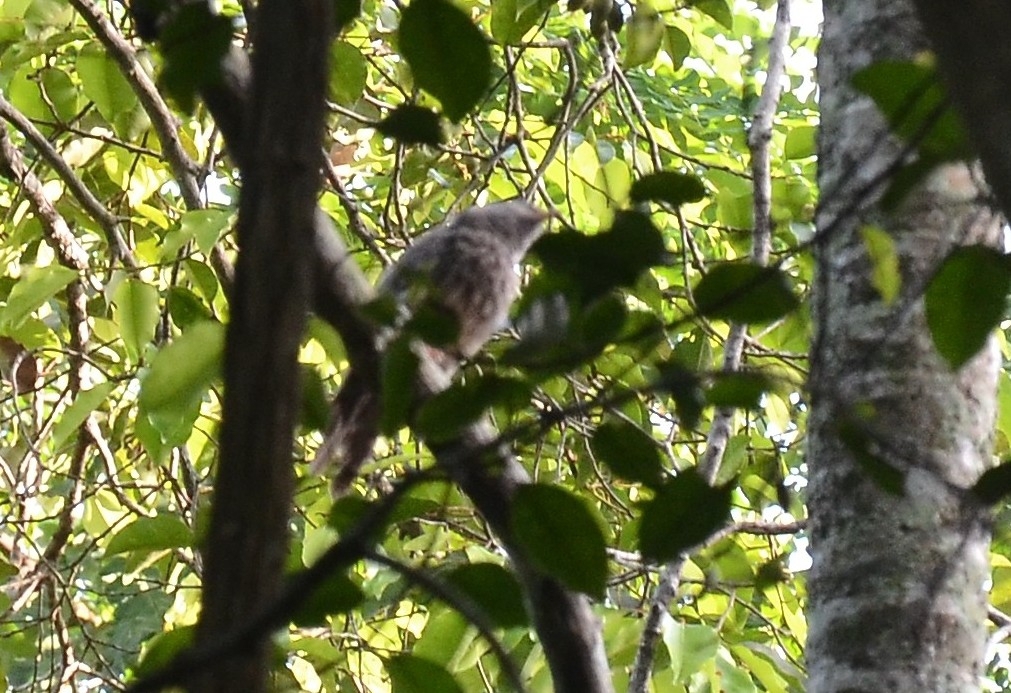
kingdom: Animalia
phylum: Chordata
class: Aves
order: Passeriformes
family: Leiothrichidae
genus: Turdoides
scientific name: Turdoides striata
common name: Jungle babbler
